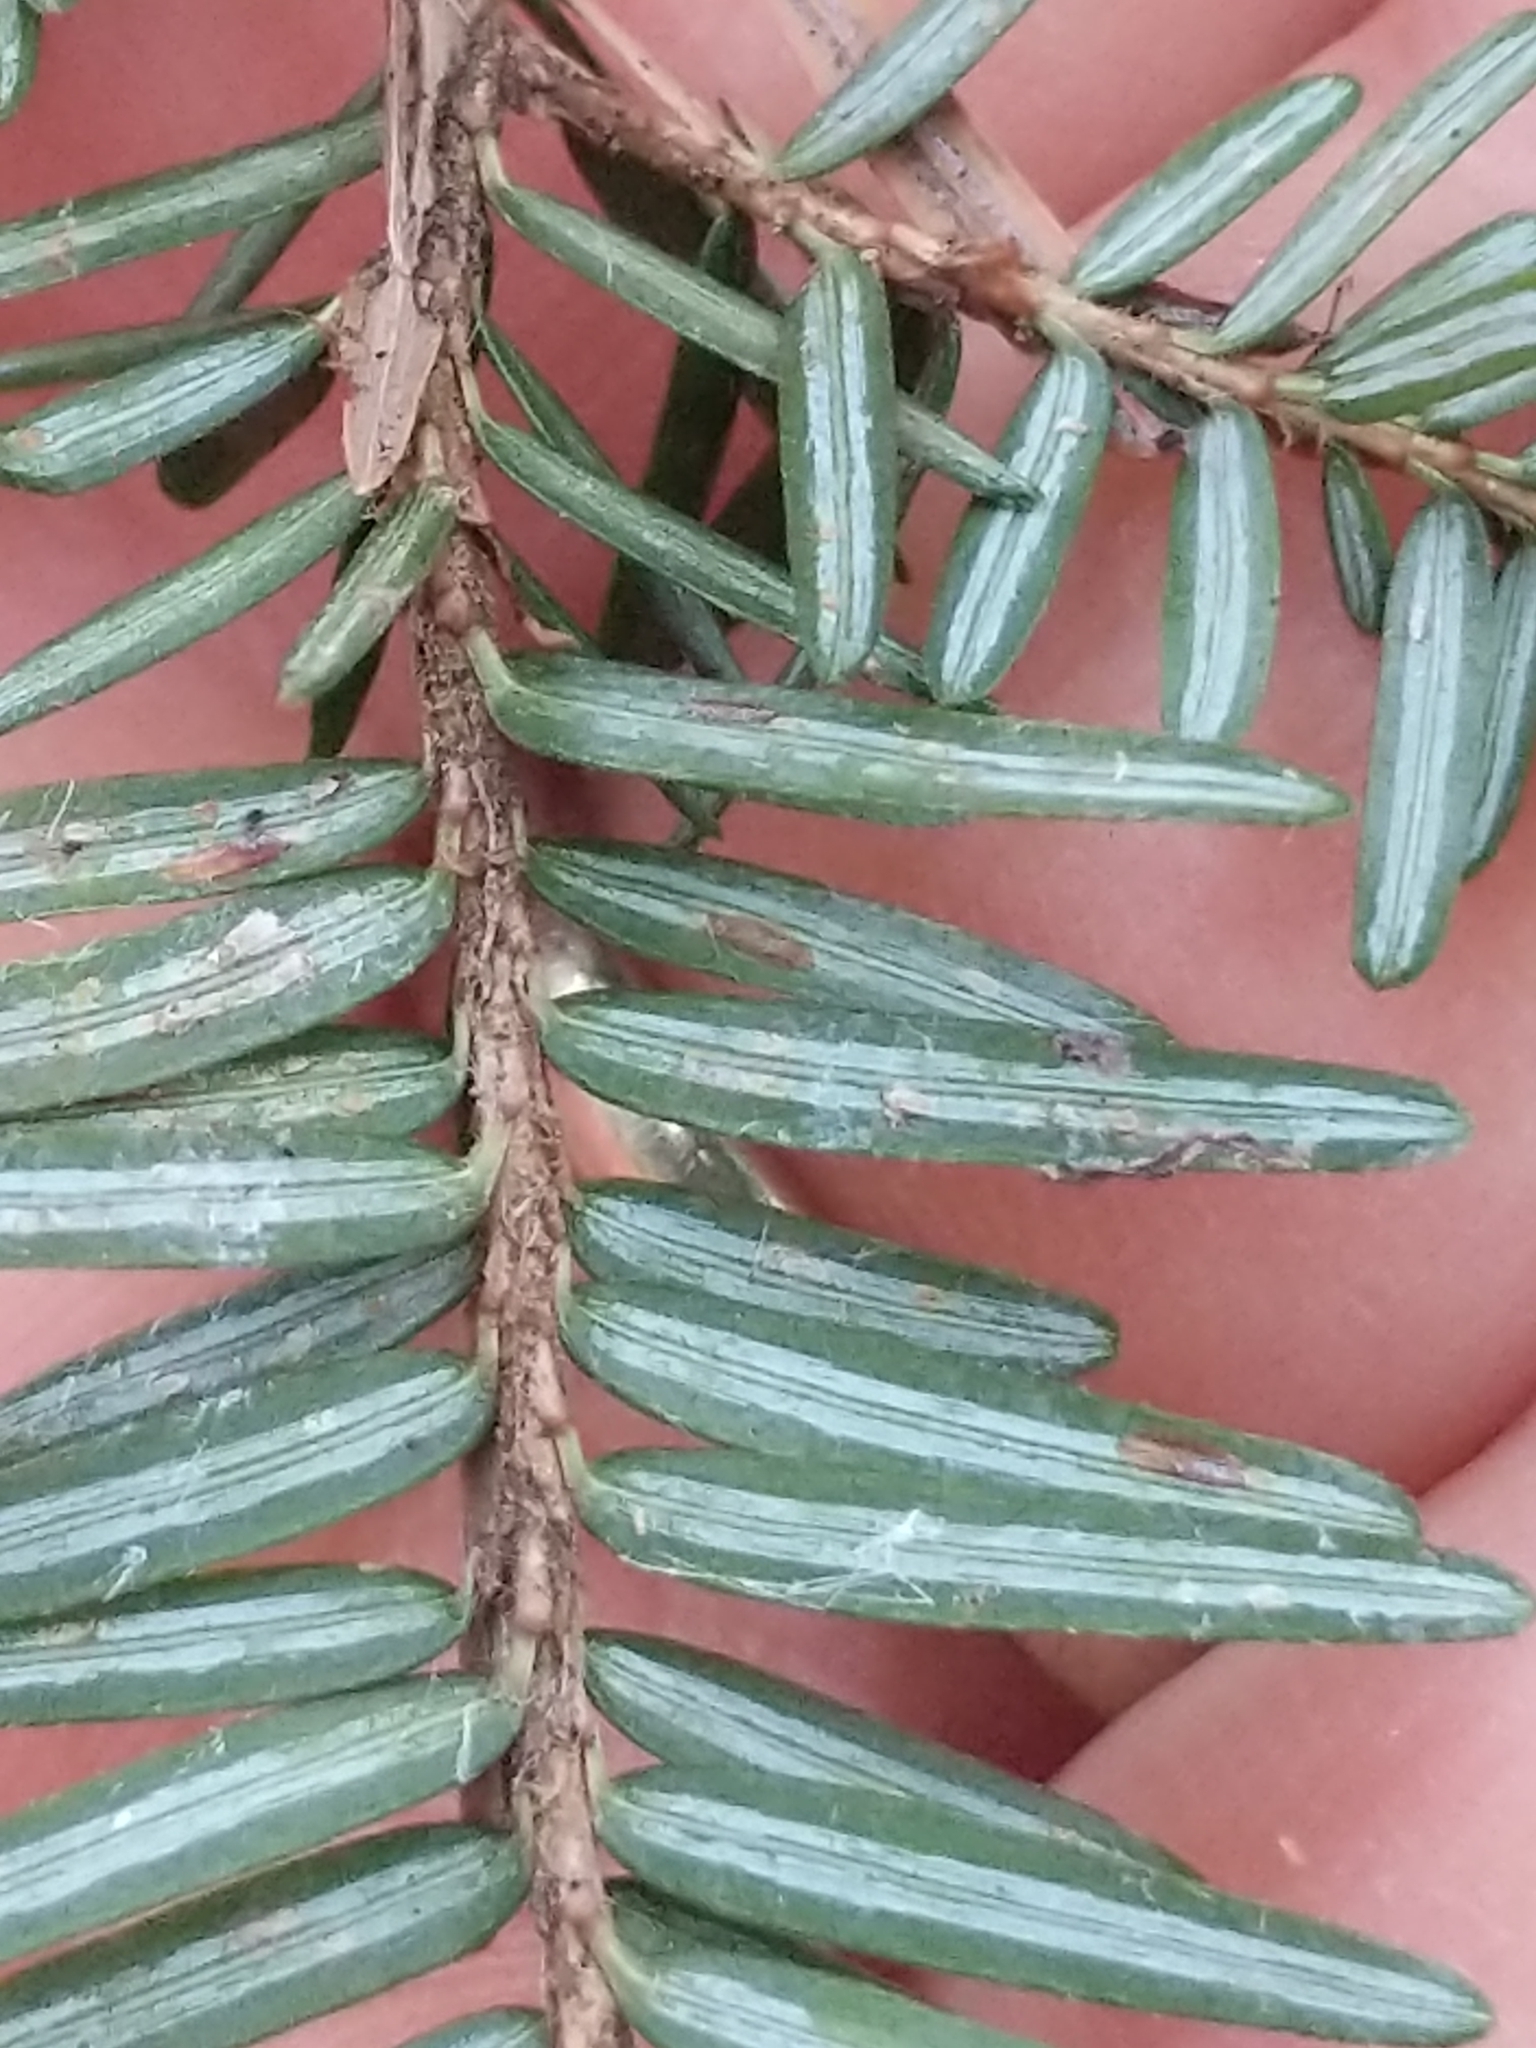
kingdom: Plantae
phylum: Tracheophyta
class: Pinopsida
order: Pinales
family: Pinaceae
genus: Tsuga
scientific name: Tsuga canadensis
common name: Eastern hemlock
